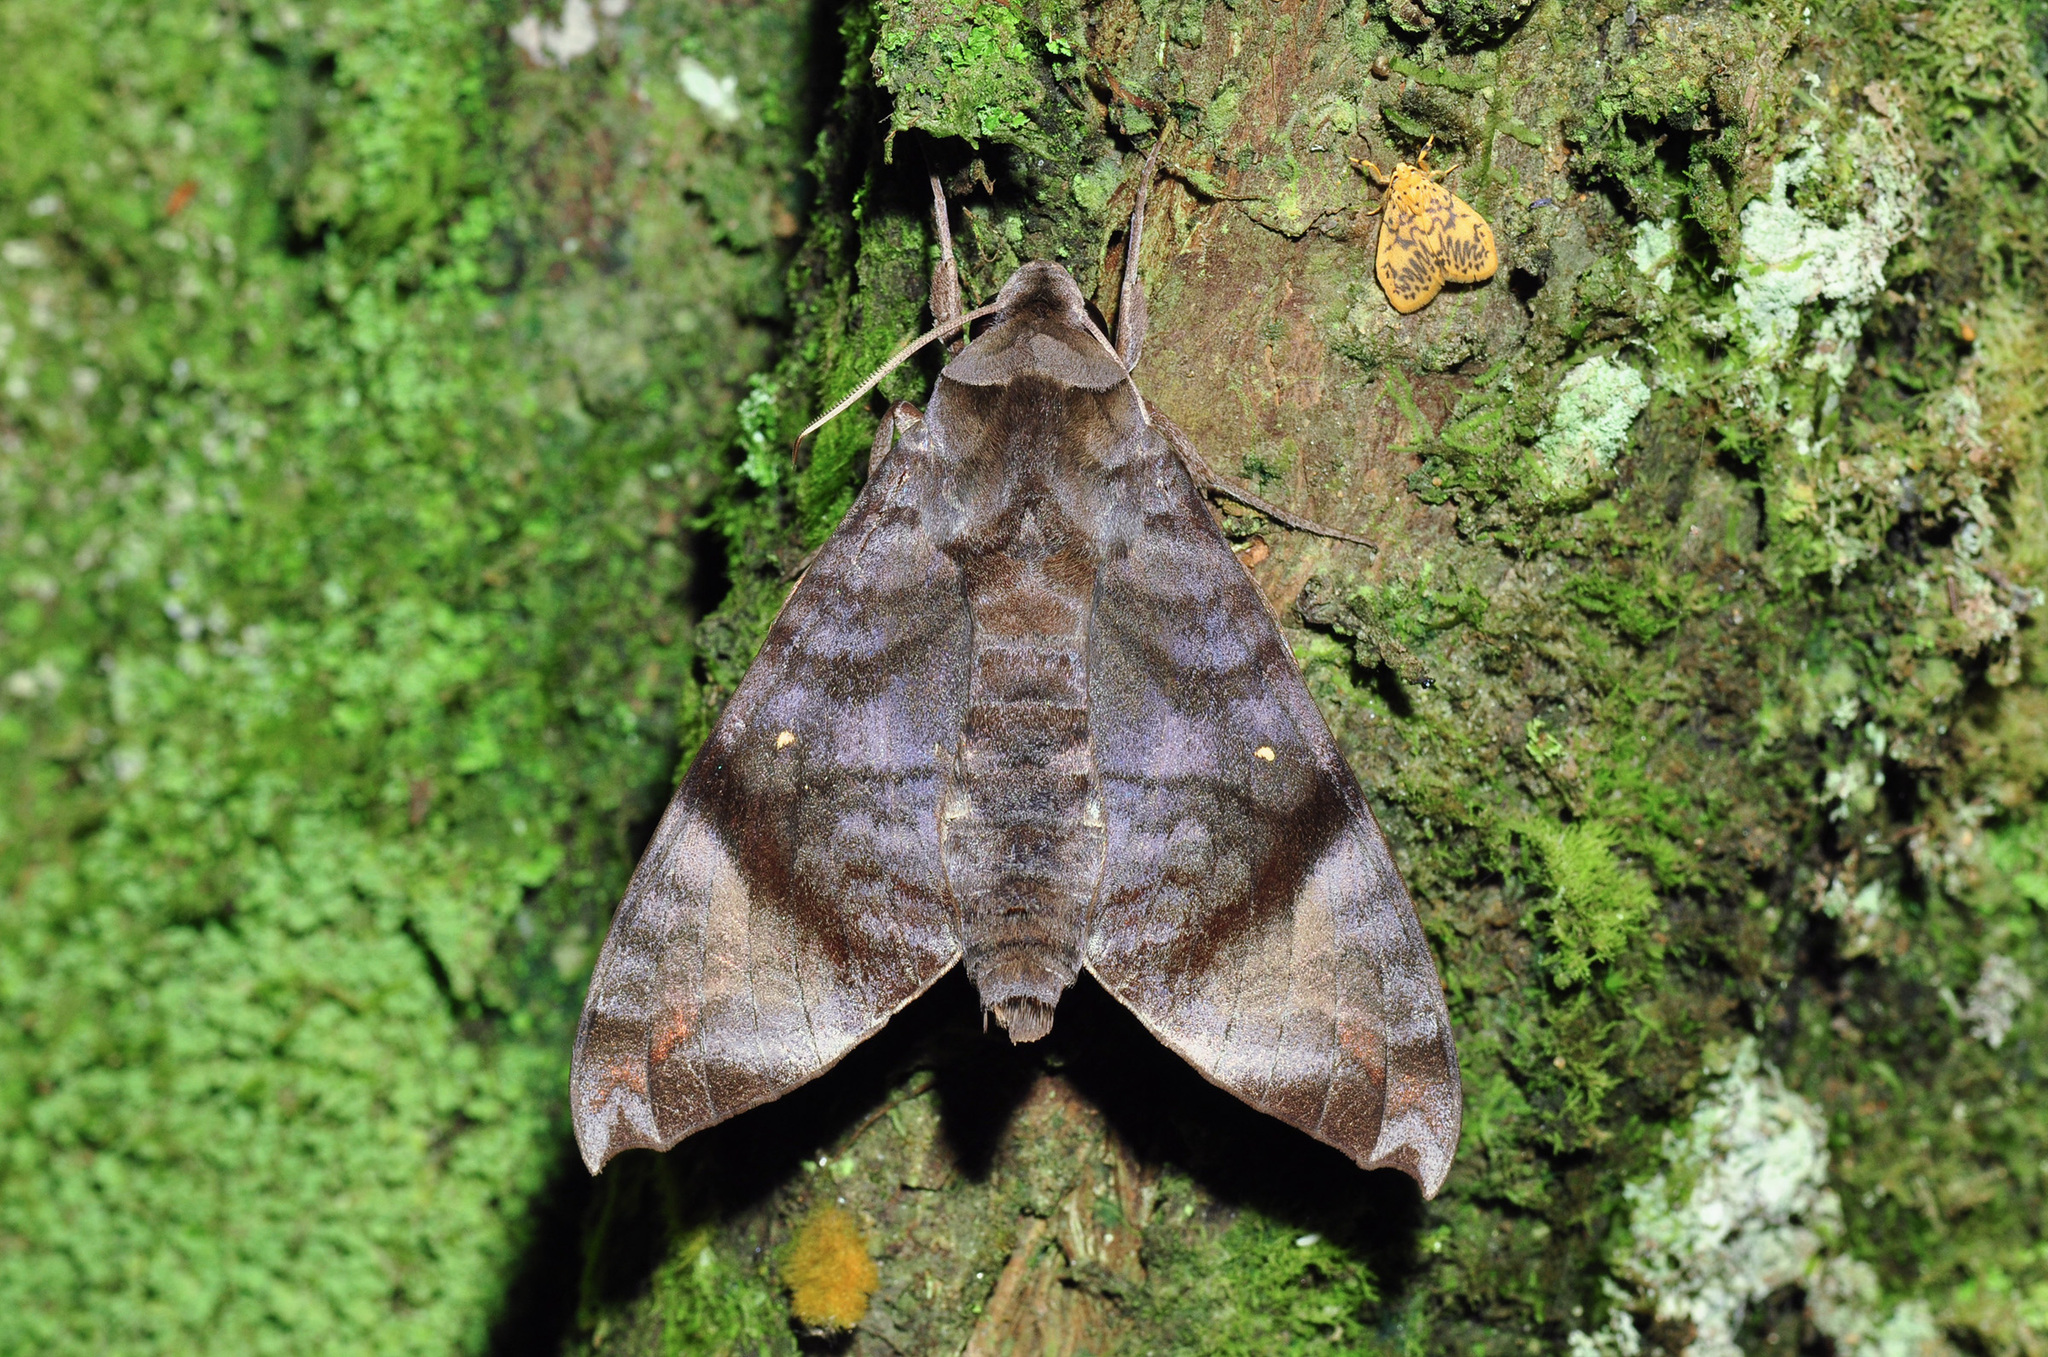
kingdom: Animalia
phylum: Arthropoda
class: Insecta
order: Lepidoptera
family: Sphingidae
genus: Acosmeryx
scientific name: Acosmeryx pseudonaga
